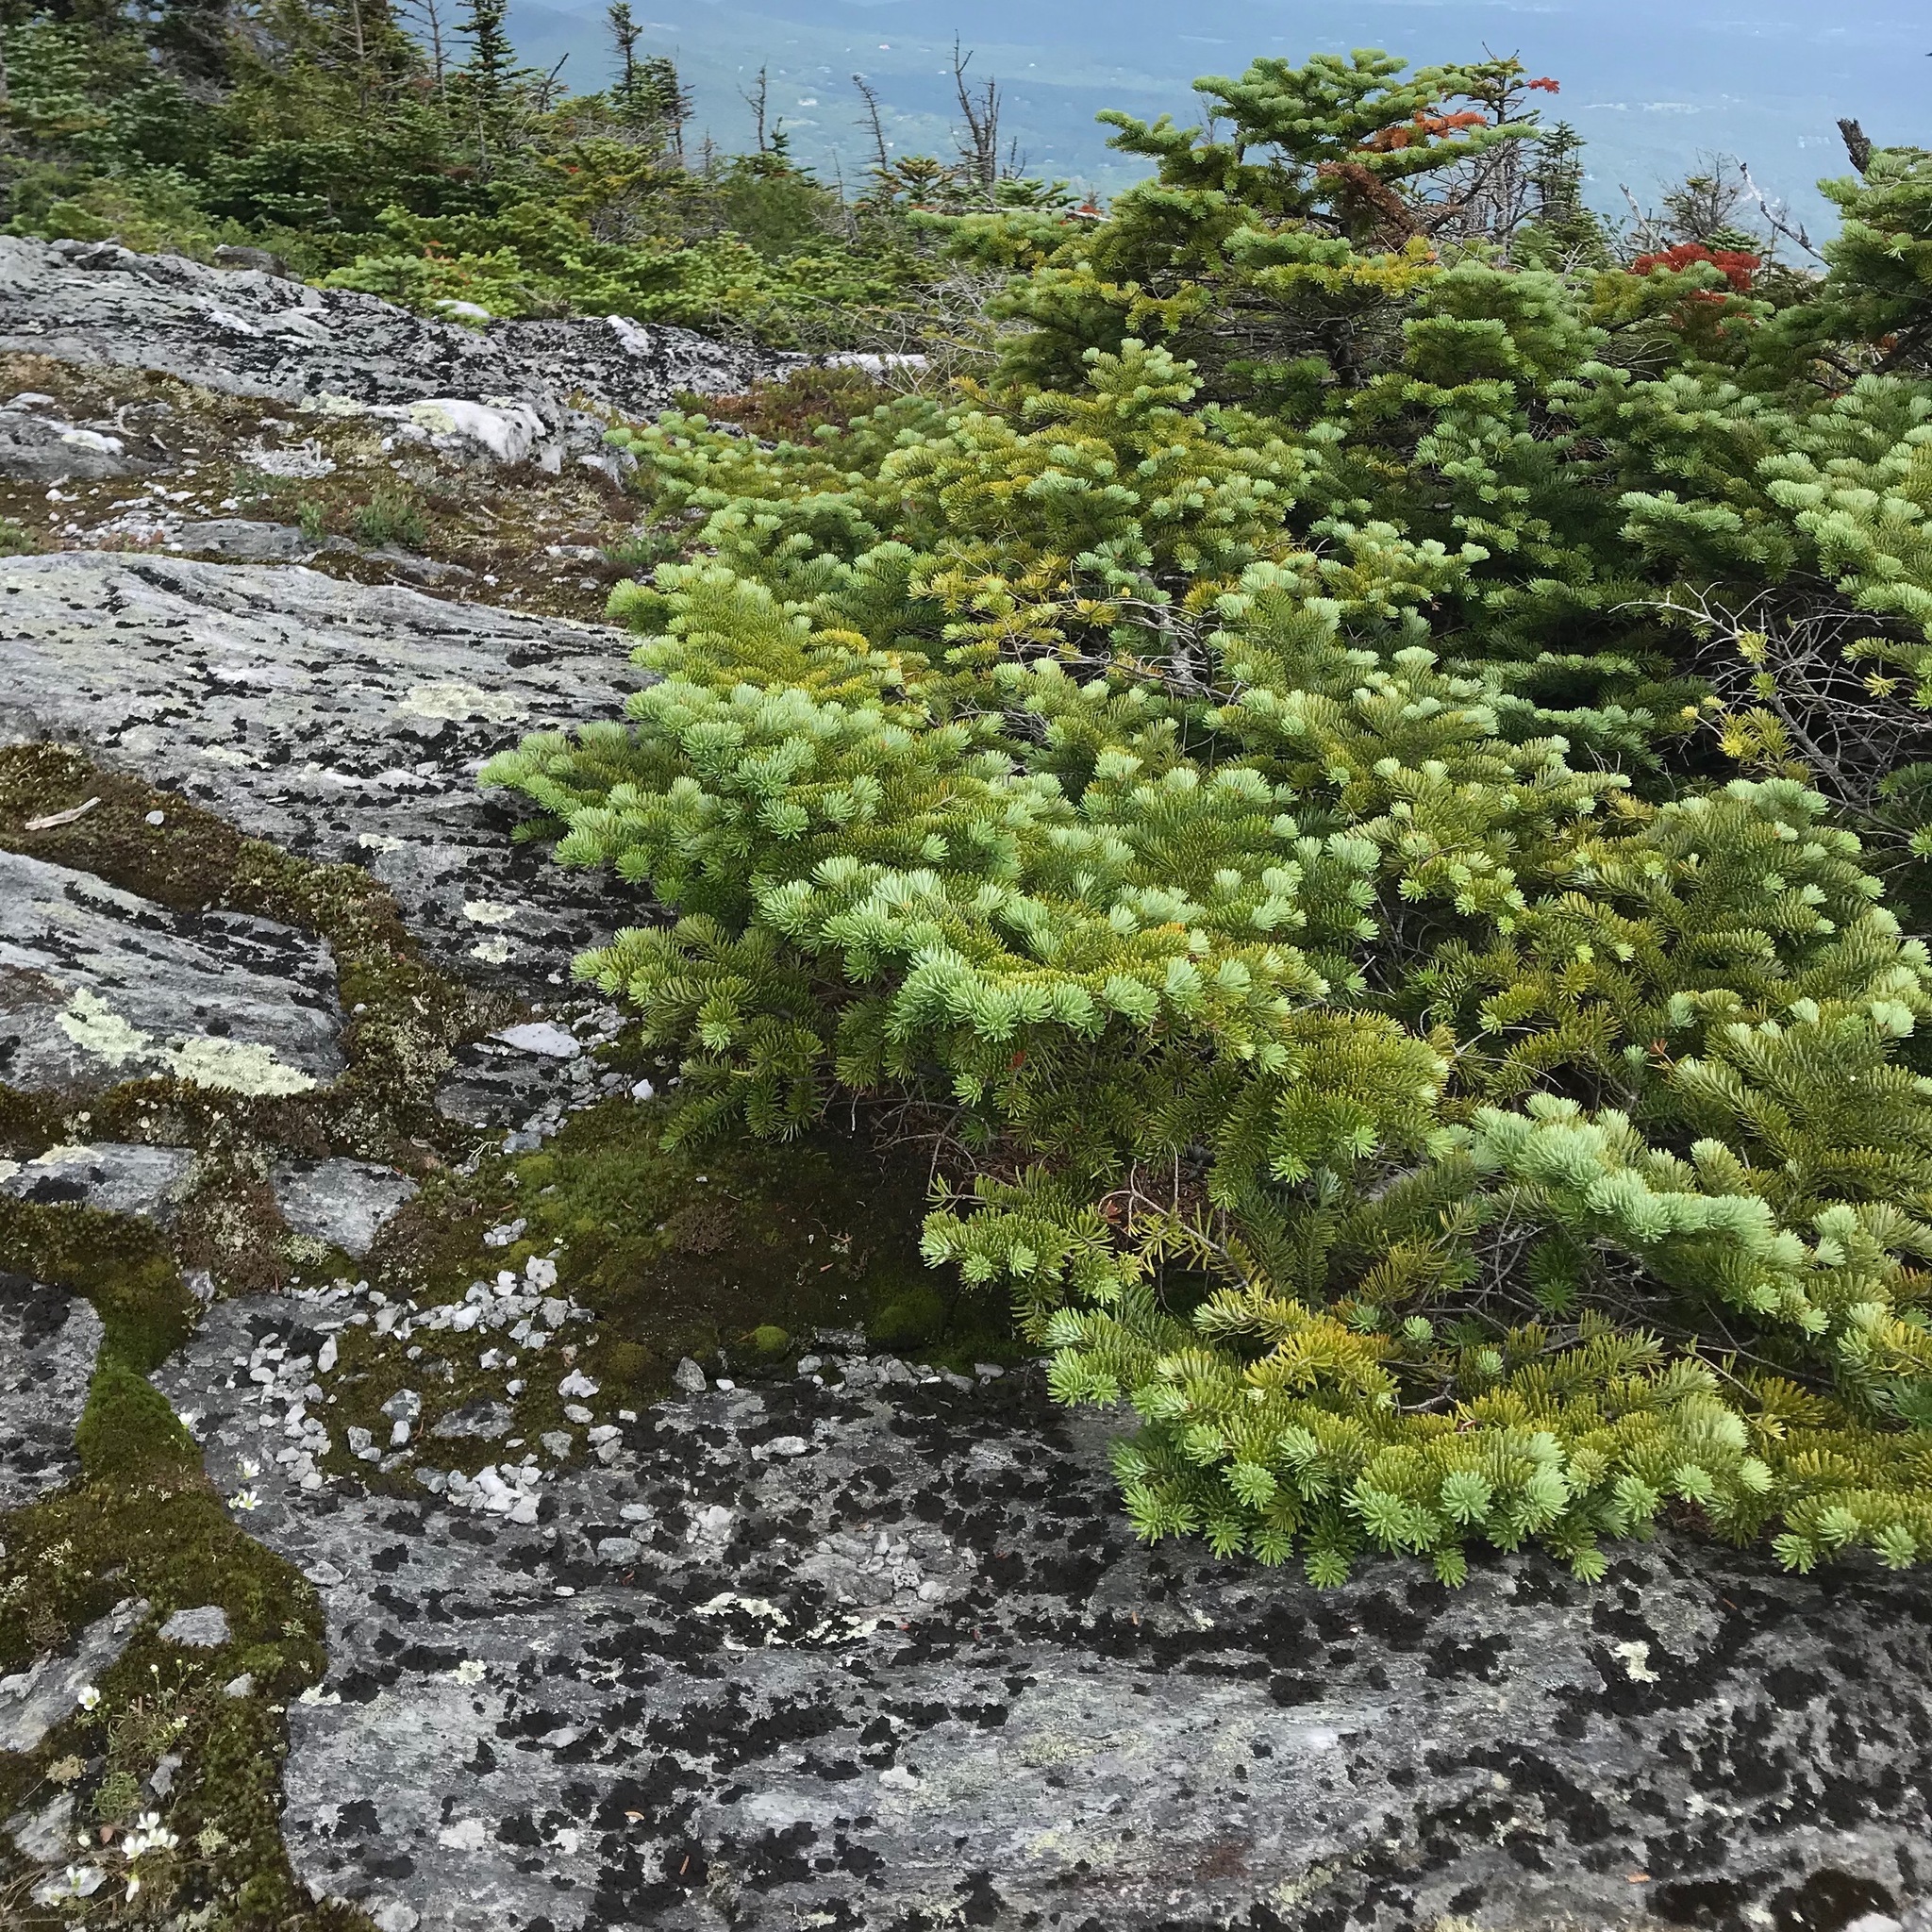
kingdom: Plantae
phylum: Tracheophyta
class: Pinopsida
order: Pinales
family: Pinaceae
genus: Abies
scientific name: Abies balsamea
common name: Balsam fir
